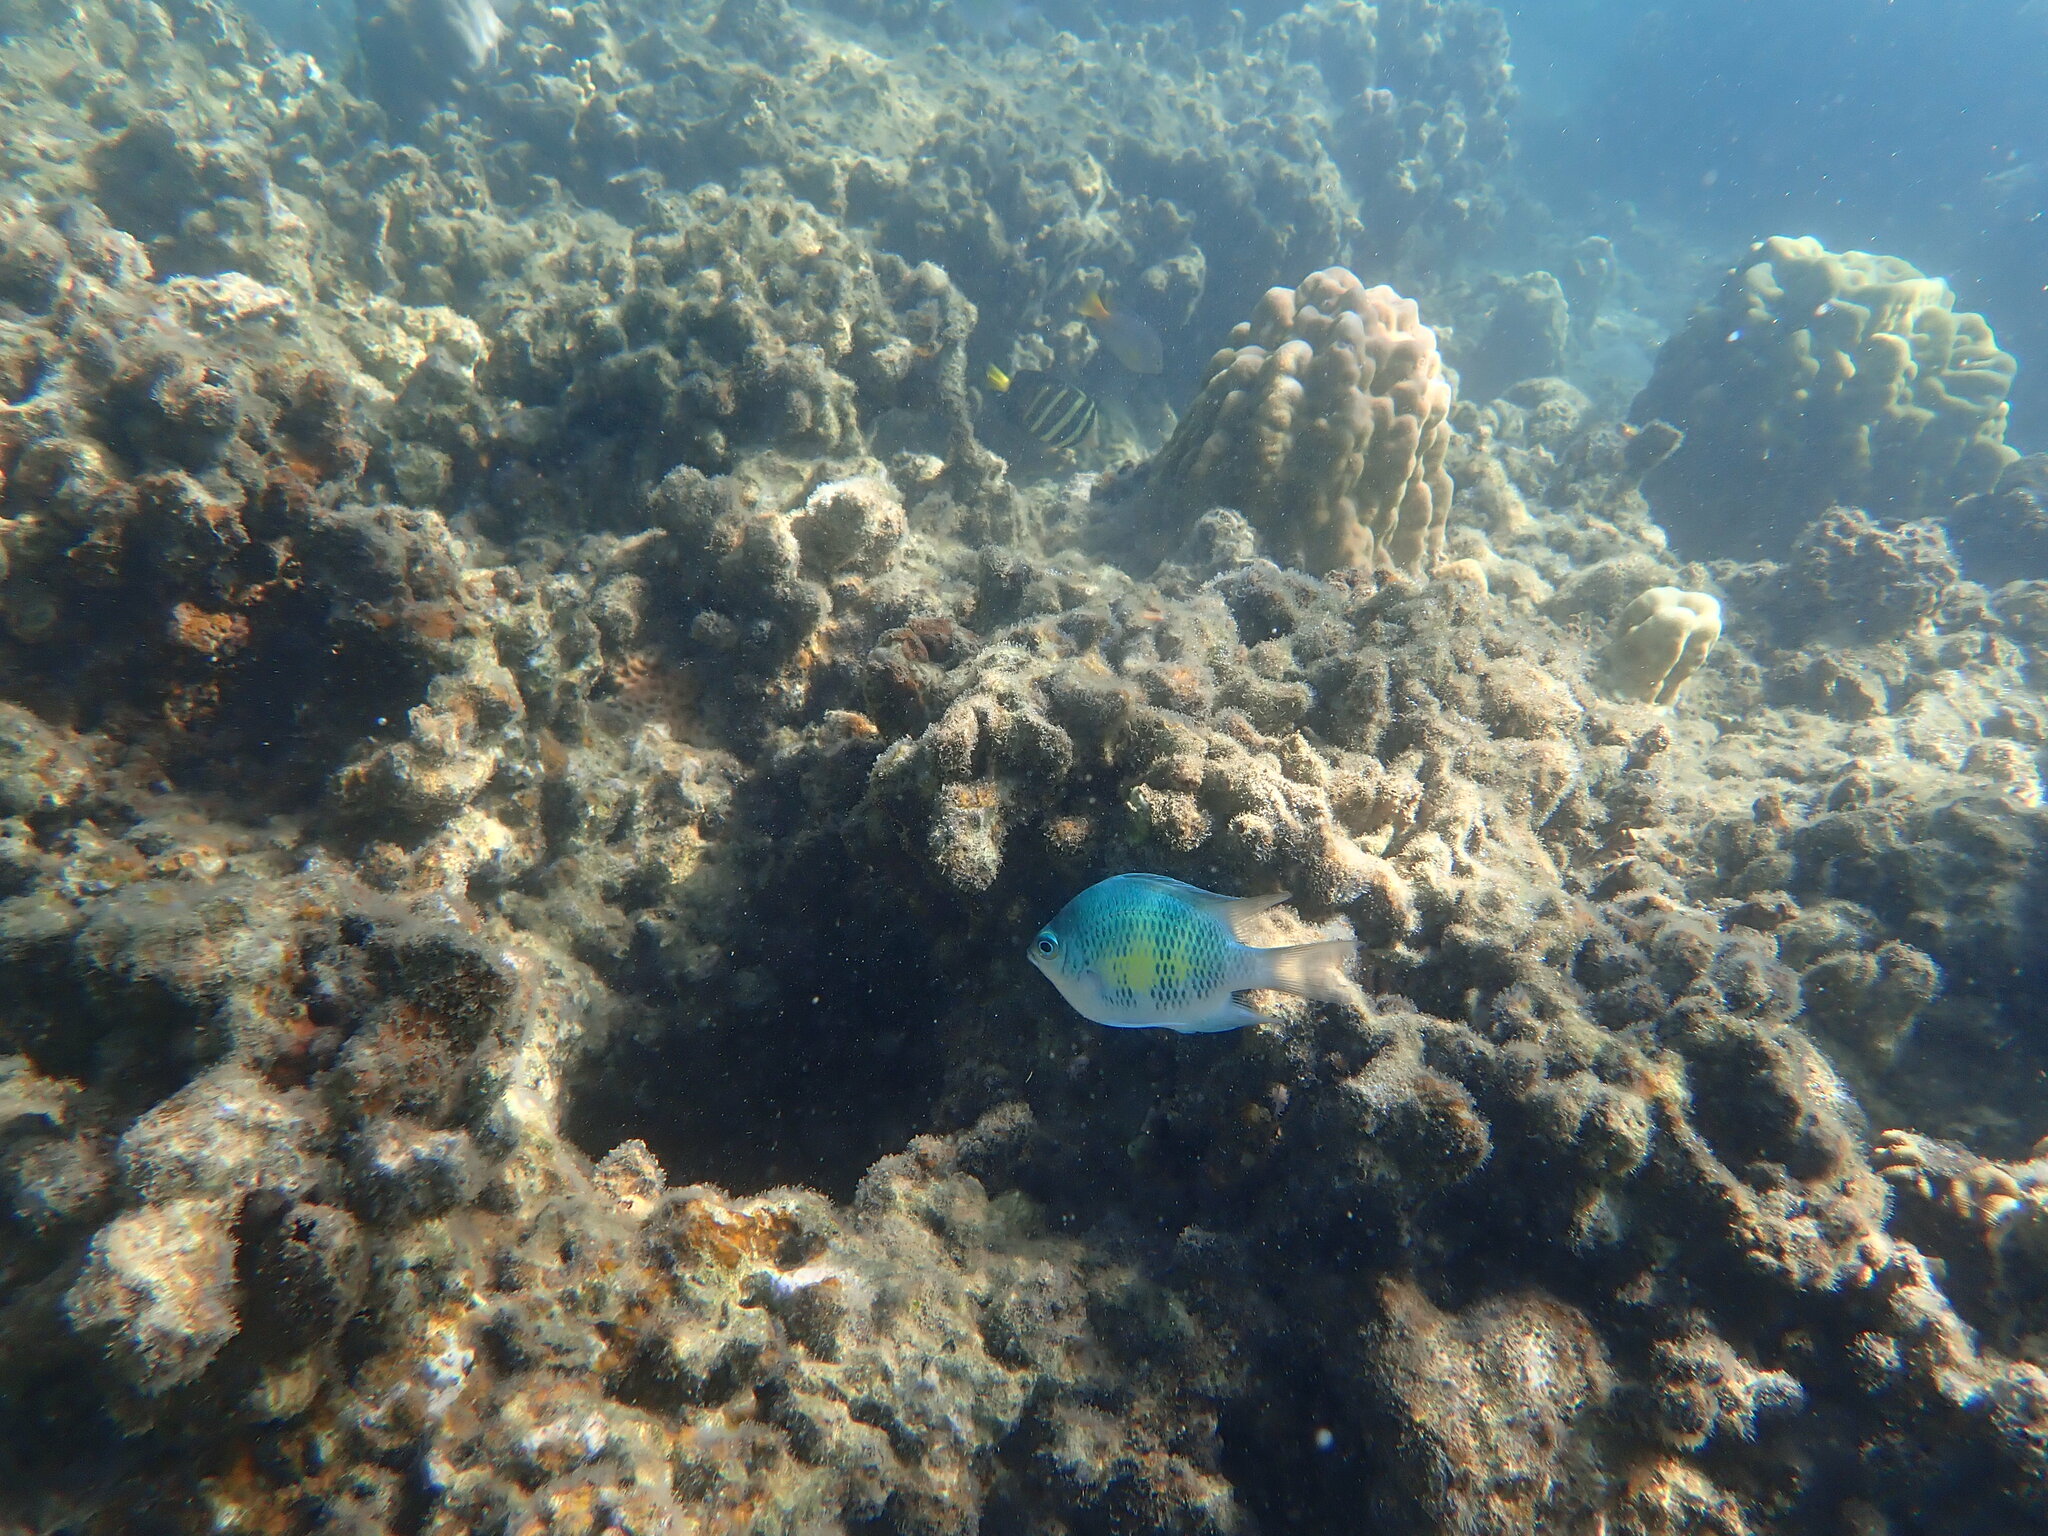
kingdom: Animalia
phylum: Chordata
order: Perciformes
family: Pomacentridae
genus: Amblyglyphidodon
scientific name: Amblyglyphidodon curacao
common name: Staghorn damsel
